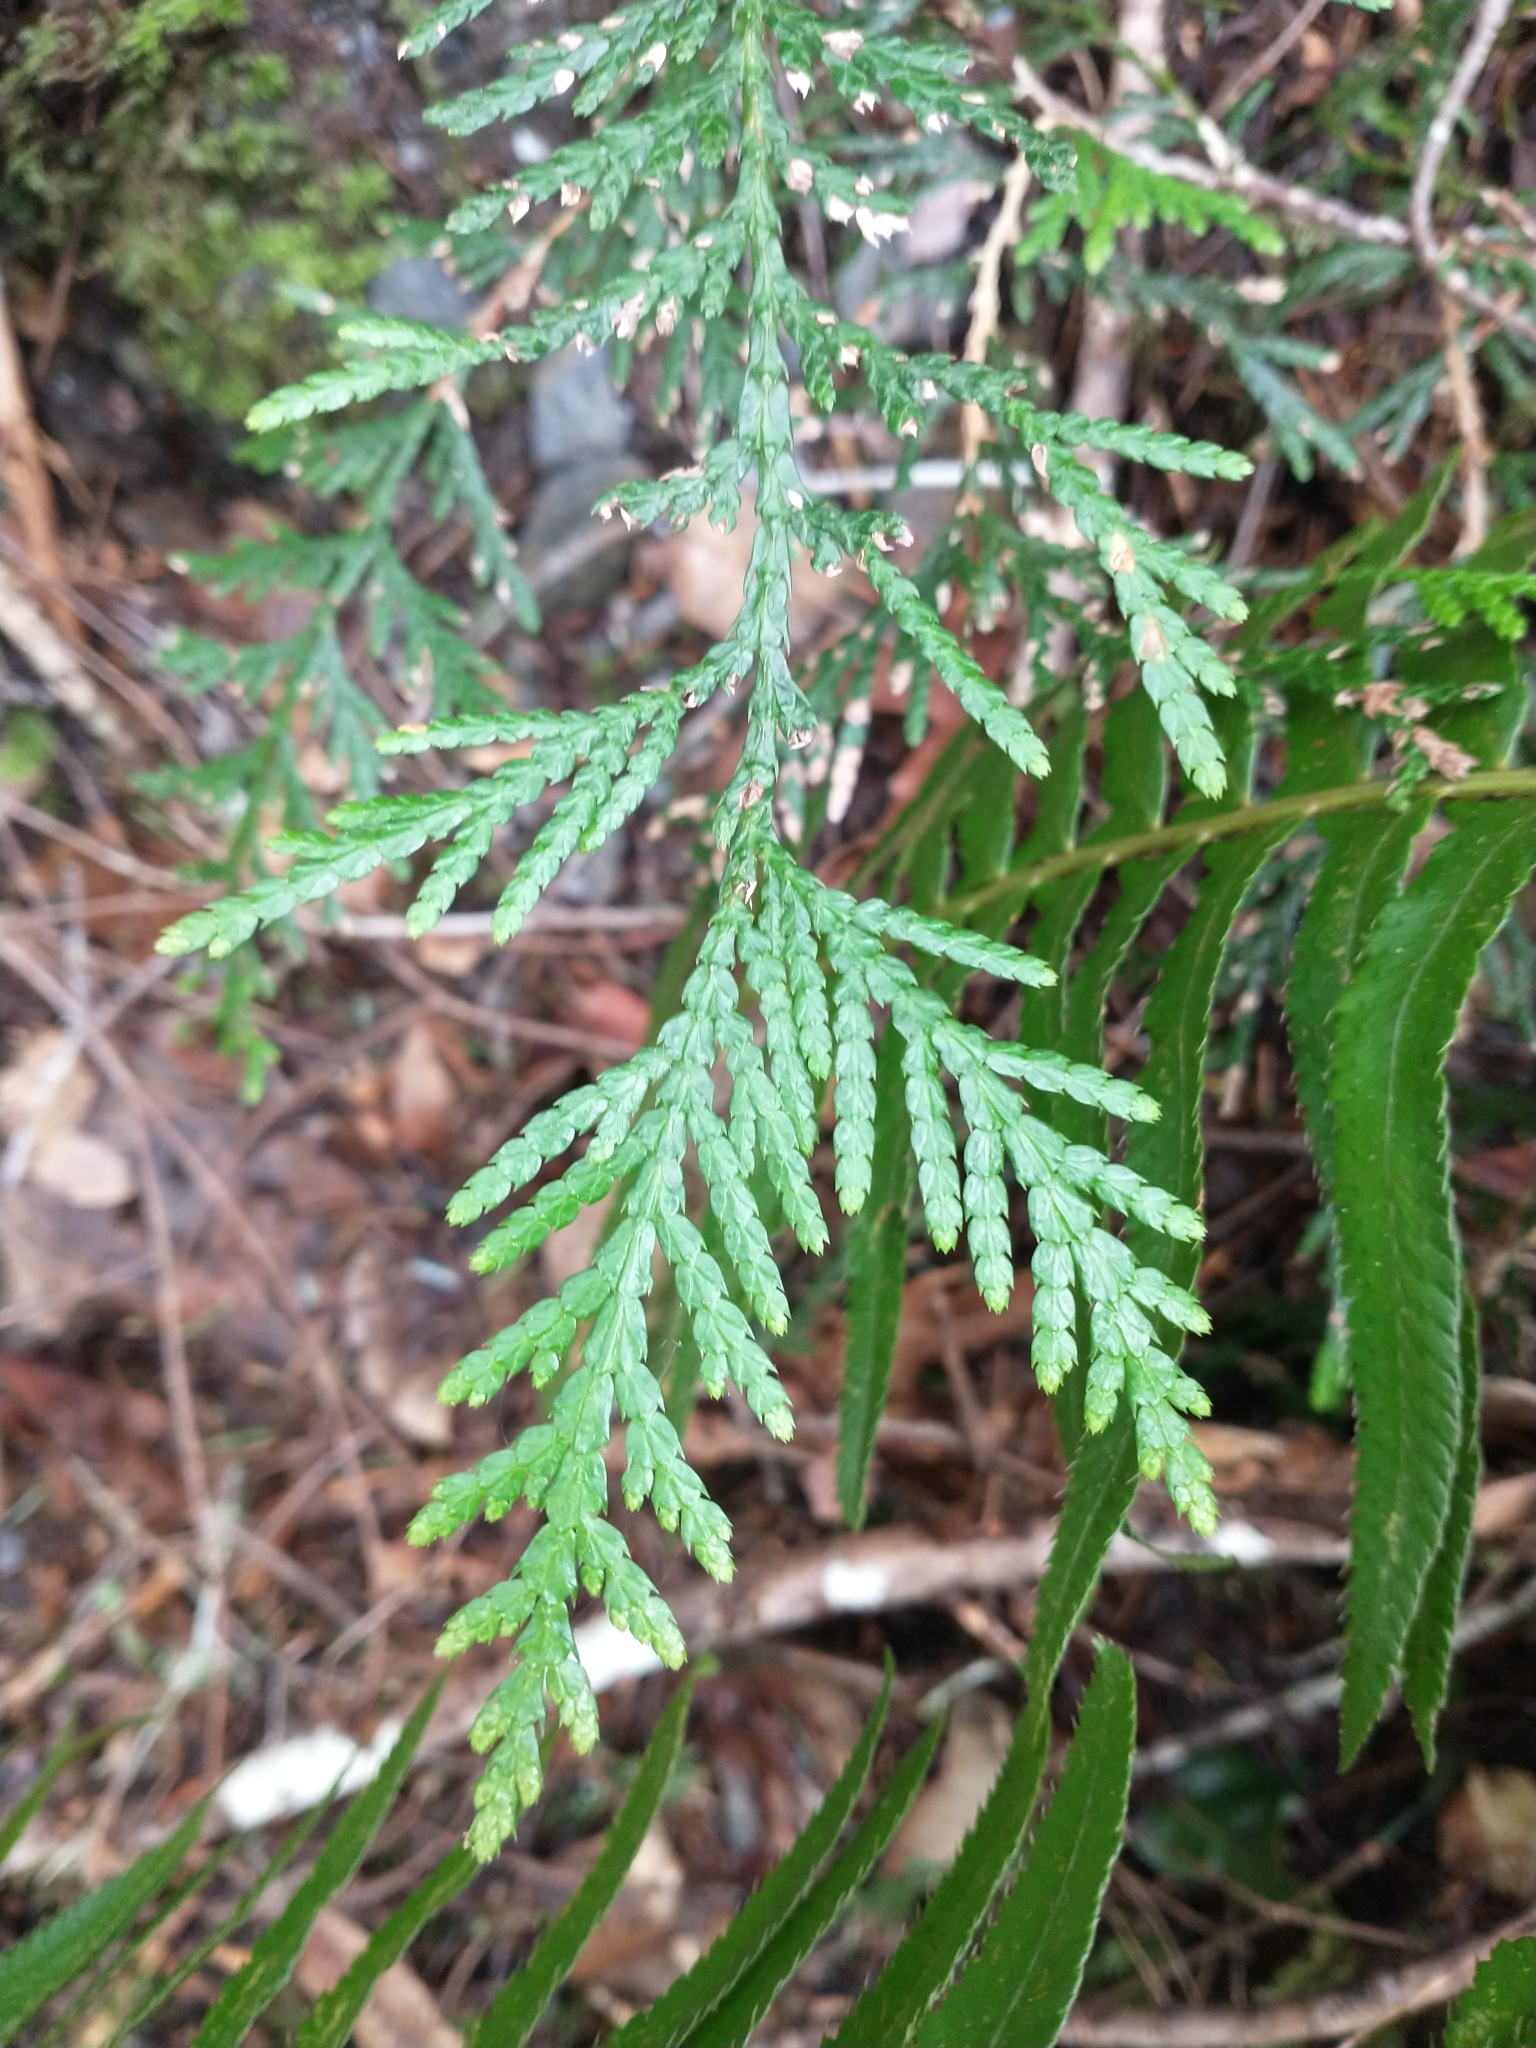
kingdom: Plantae
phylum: Tracheophyta
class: Pinopsida
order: Pinales
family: Cupressaceae
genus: Thuja
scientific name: Thuja plicata
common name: Western red-cedar
